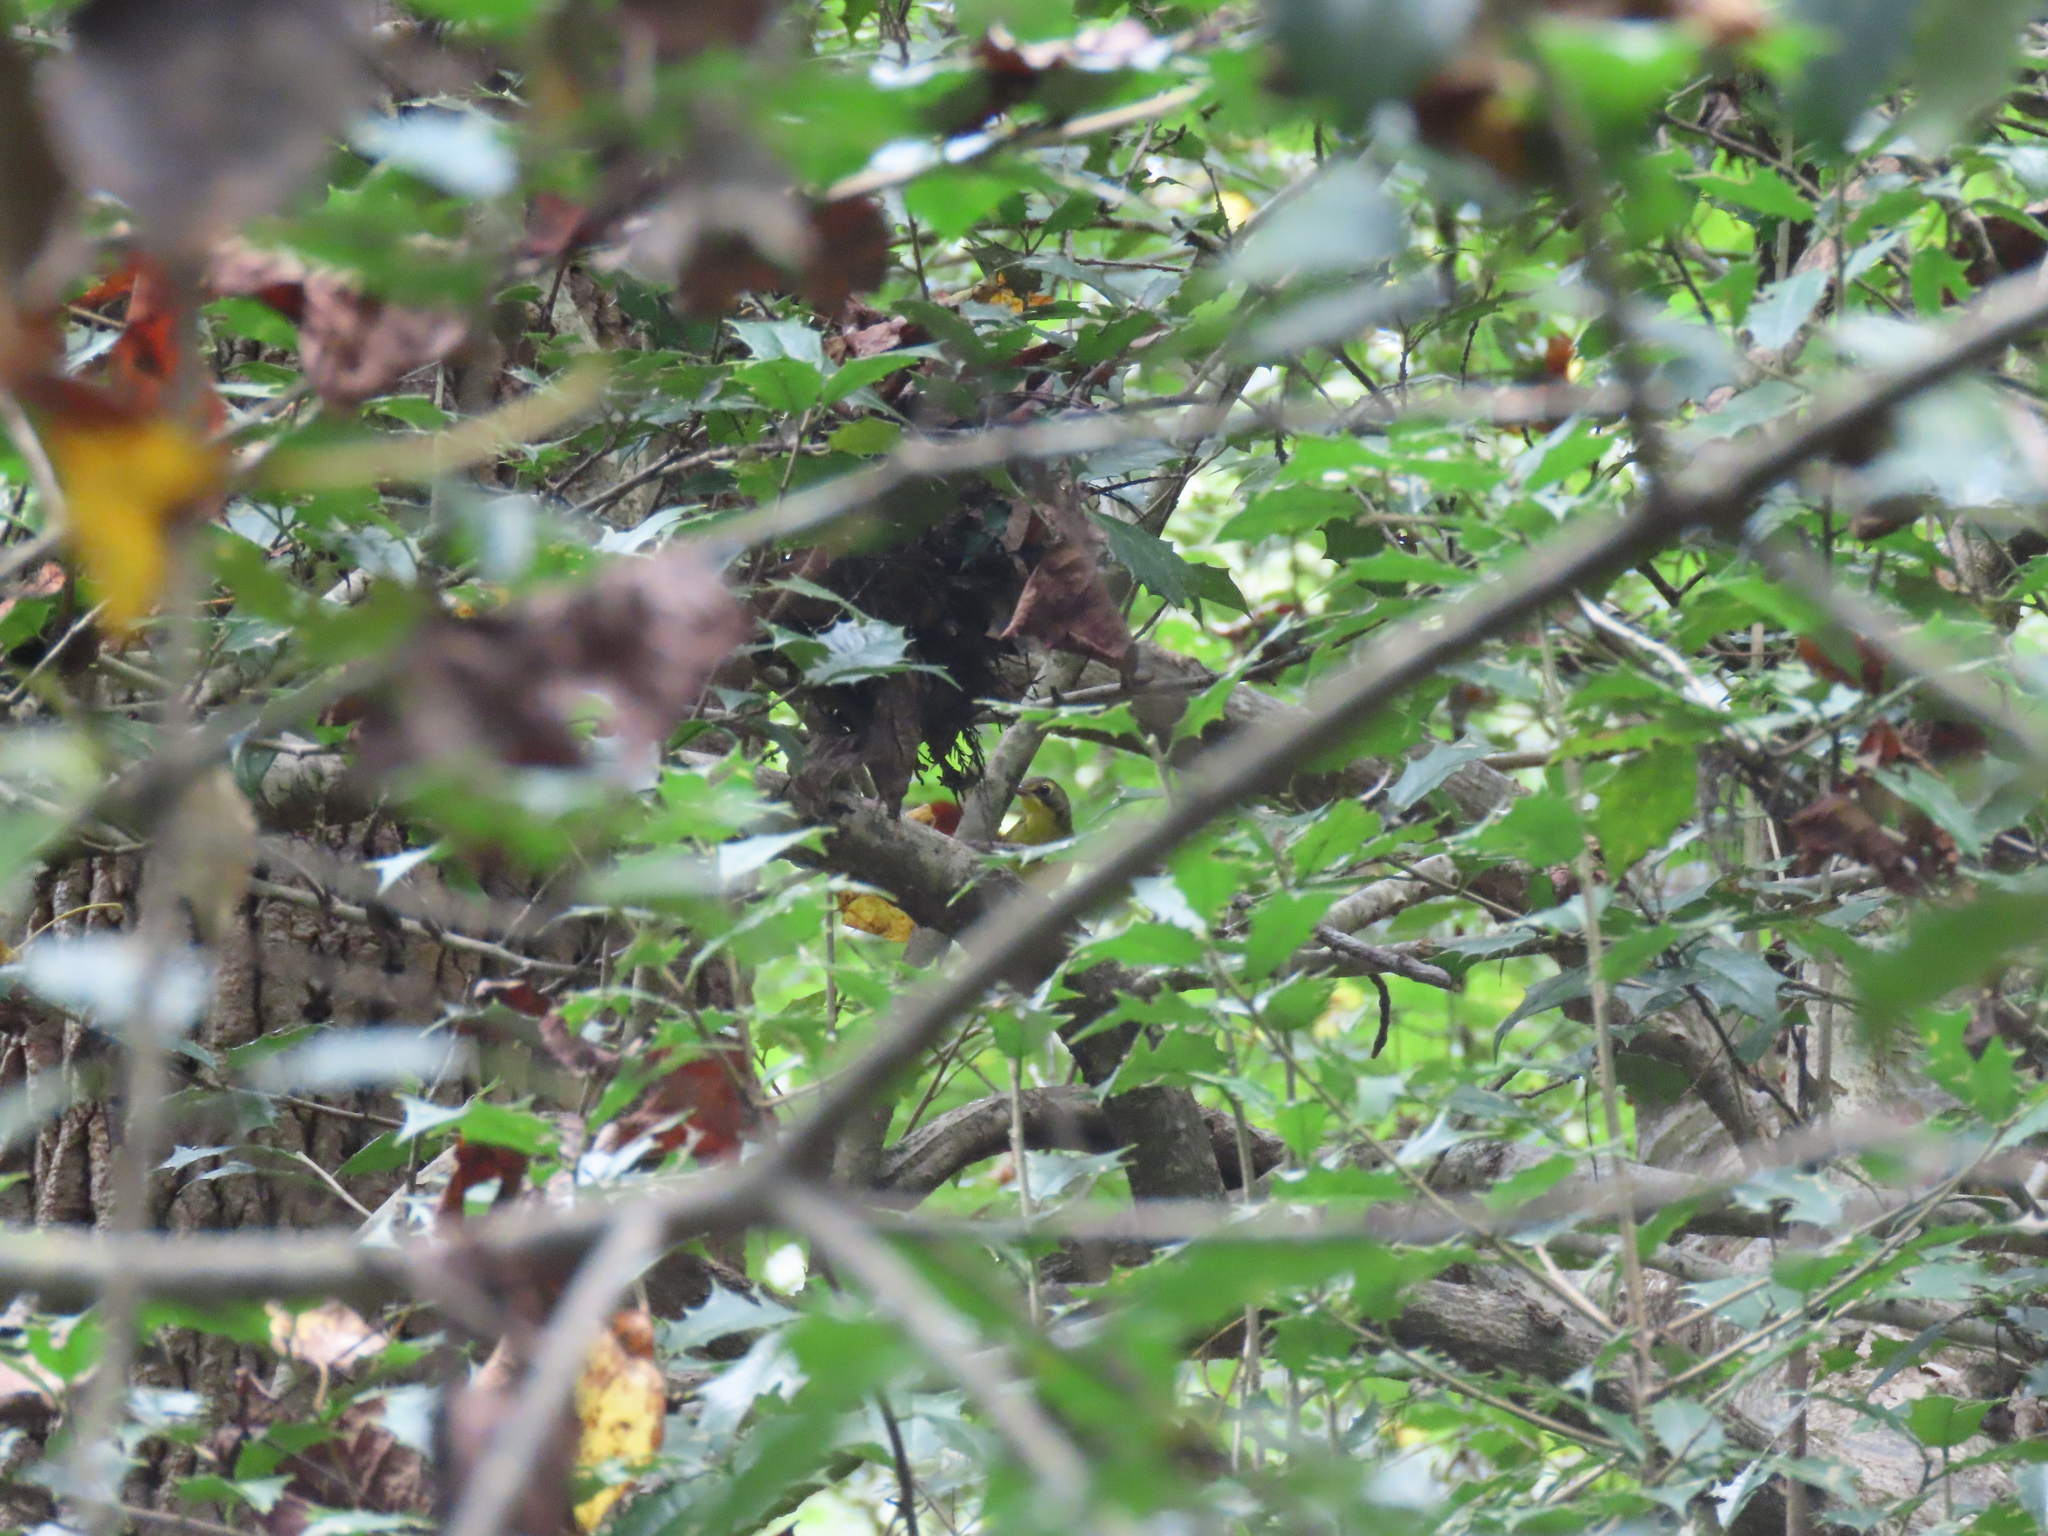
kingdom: Animalia
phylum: Chordata
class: Aves
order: Passeriformes
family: Parulidae
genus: Geothlypis
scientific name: Geothlypis formosa
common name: Kentucky warbler
